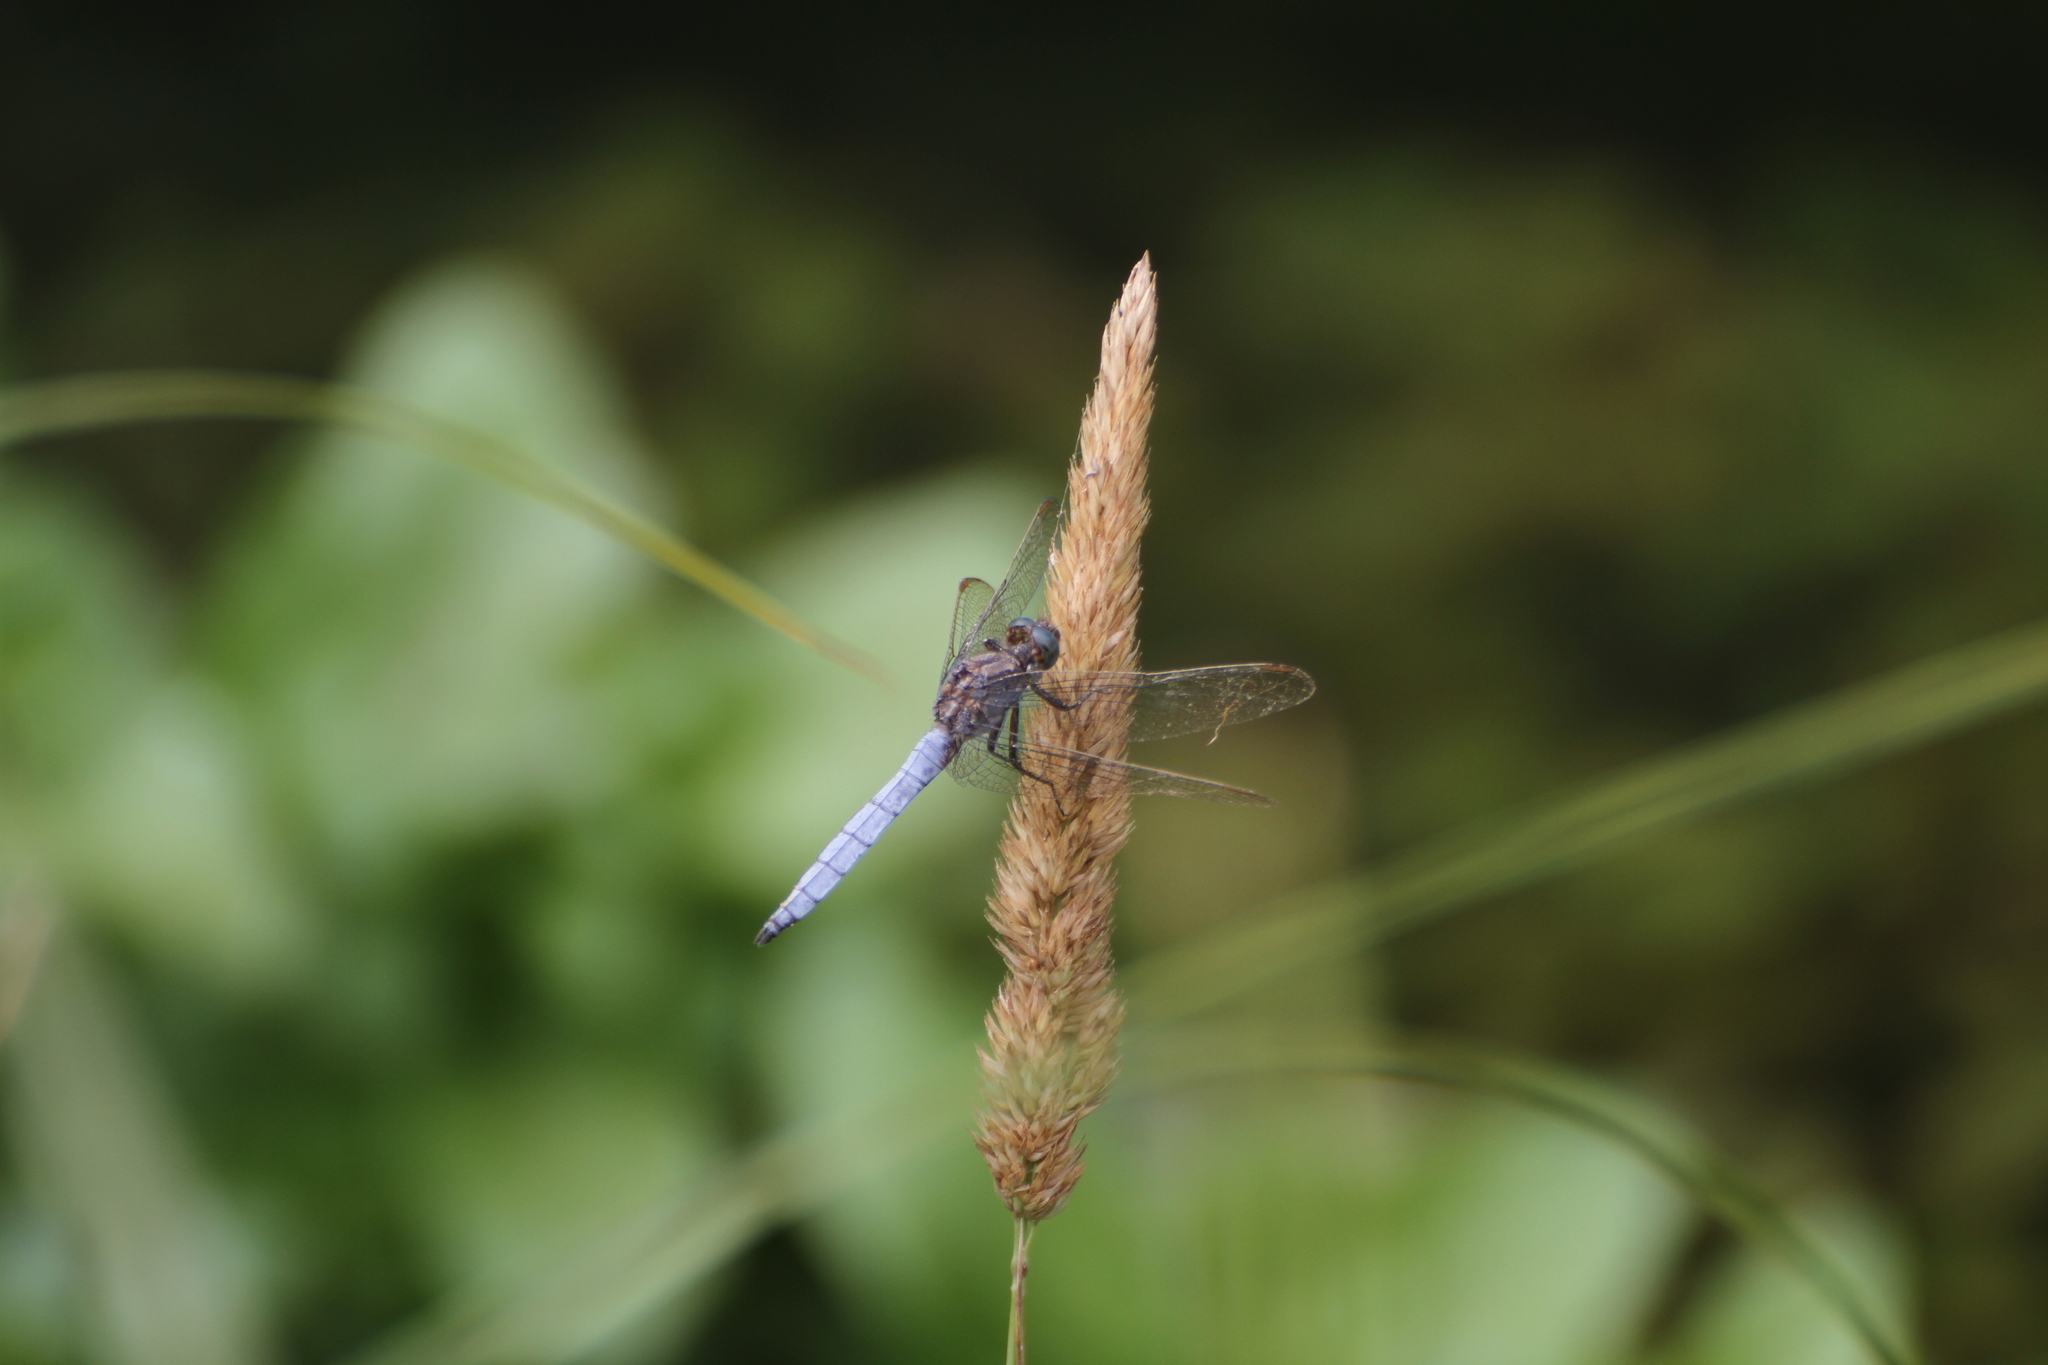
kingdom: Animalia
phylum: Arthropoda
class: Insecta
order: Odonata
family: Libellulidae
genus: Orthetrum
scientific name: Orthetrum coerulescens
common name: Keeled skimmer
